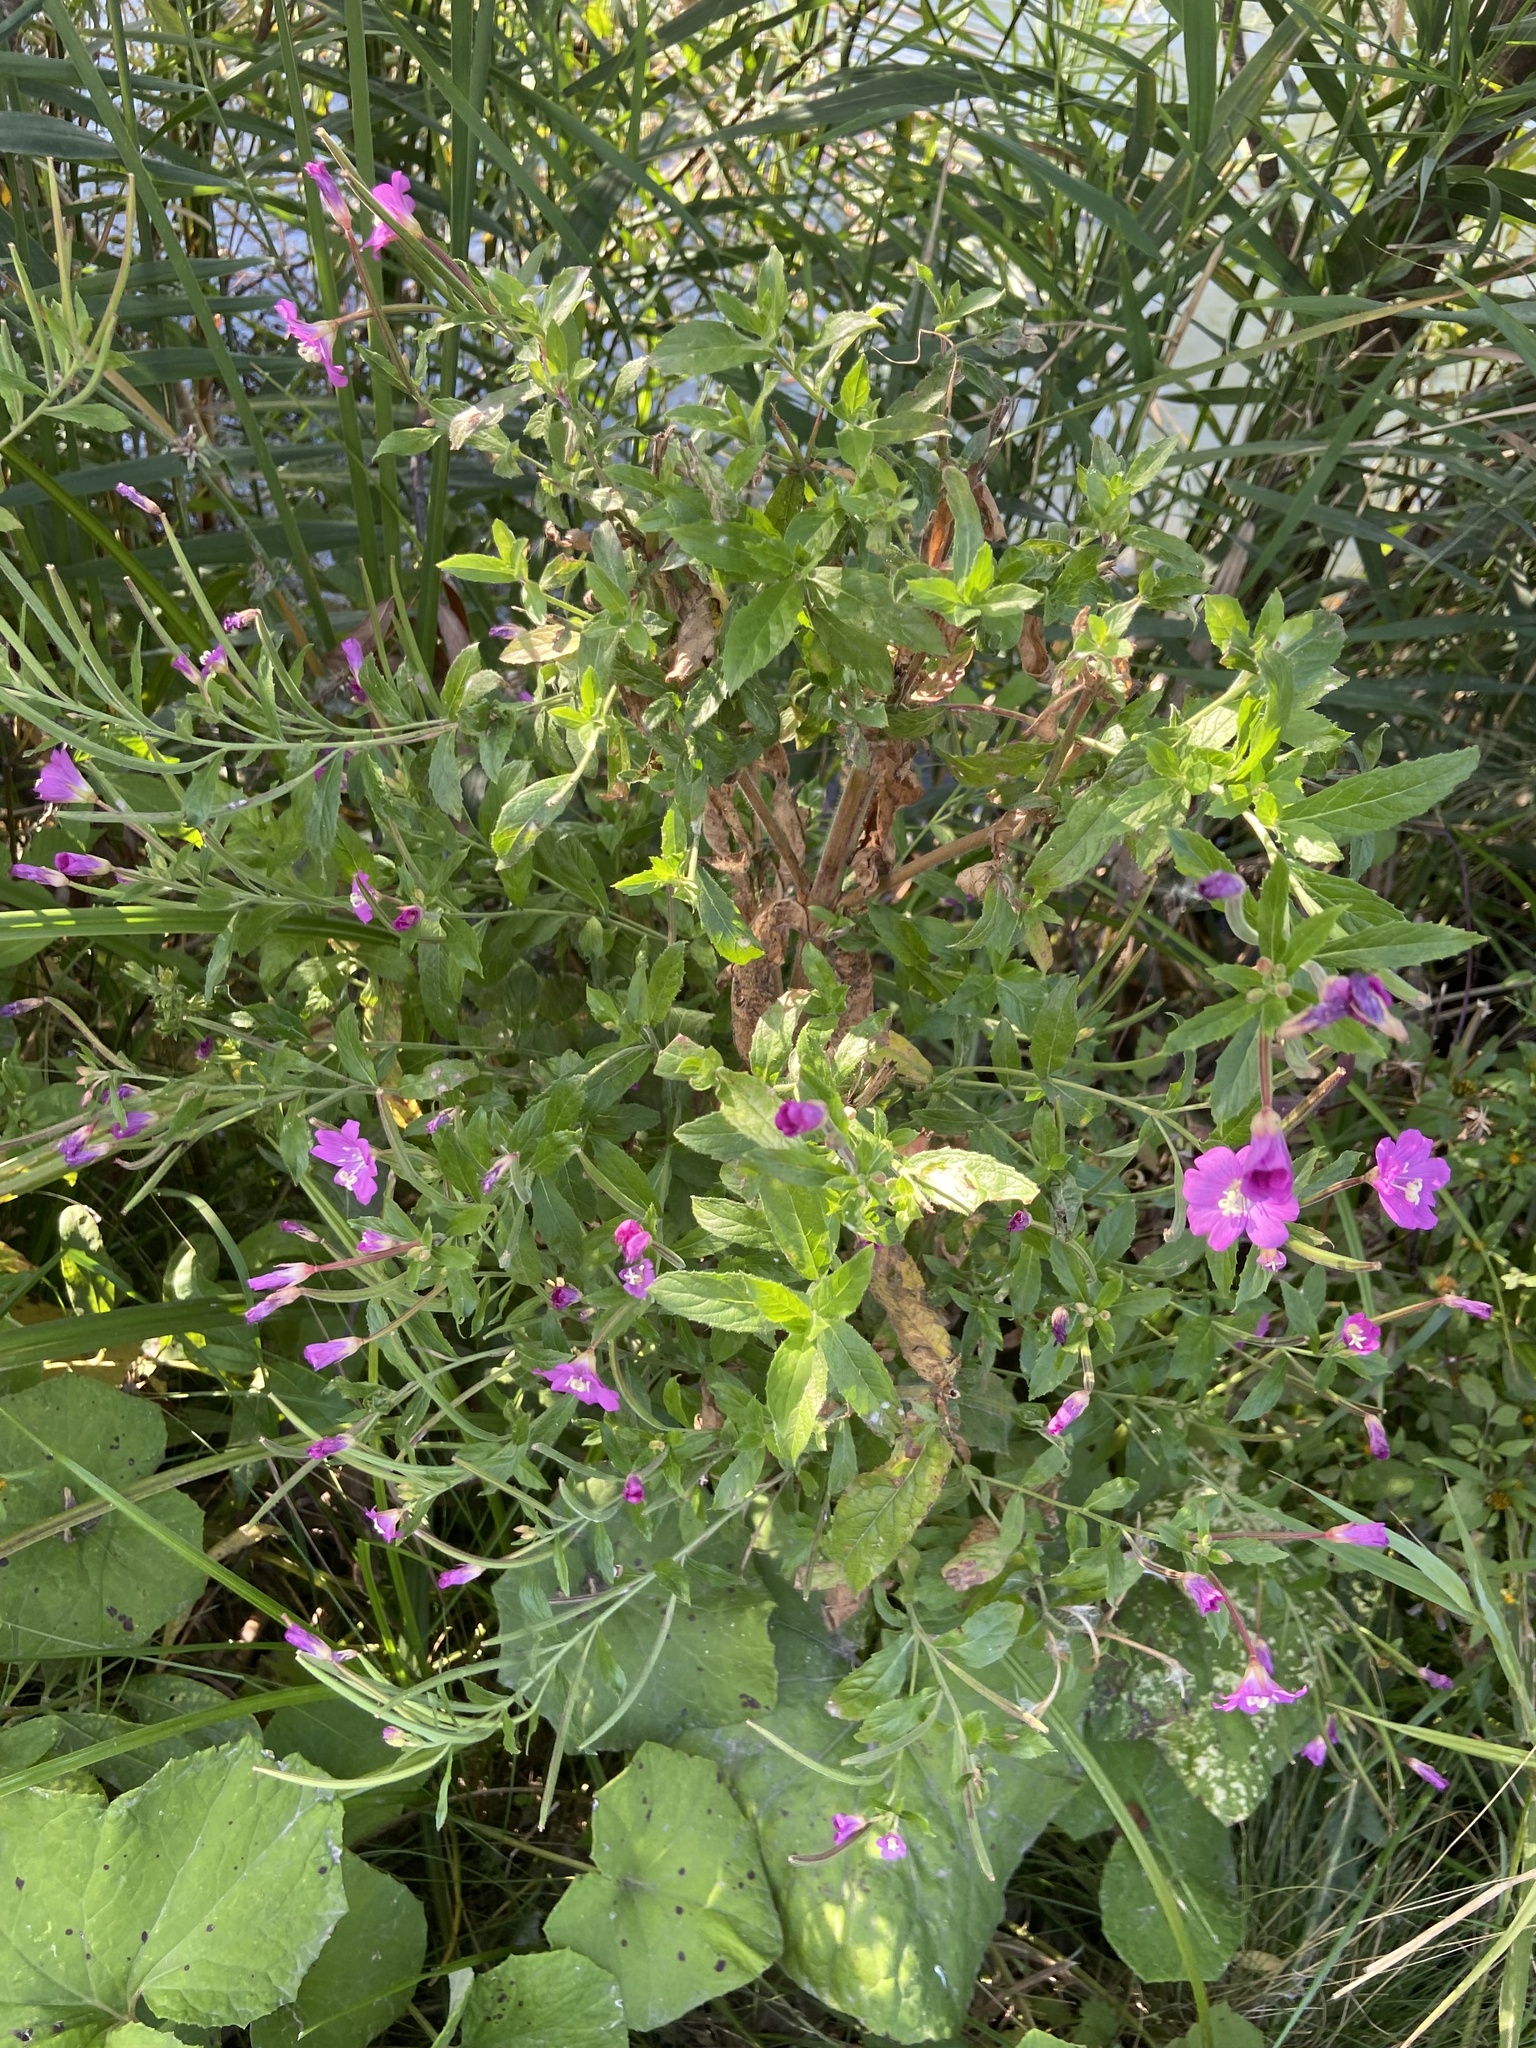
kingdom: Plantae
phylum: Tracheophyta
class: Magnoliopsida
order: Myrtales
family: Onagraceae
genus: Epilobium
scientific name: Epilobium hirsutum
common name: Great willowherb
